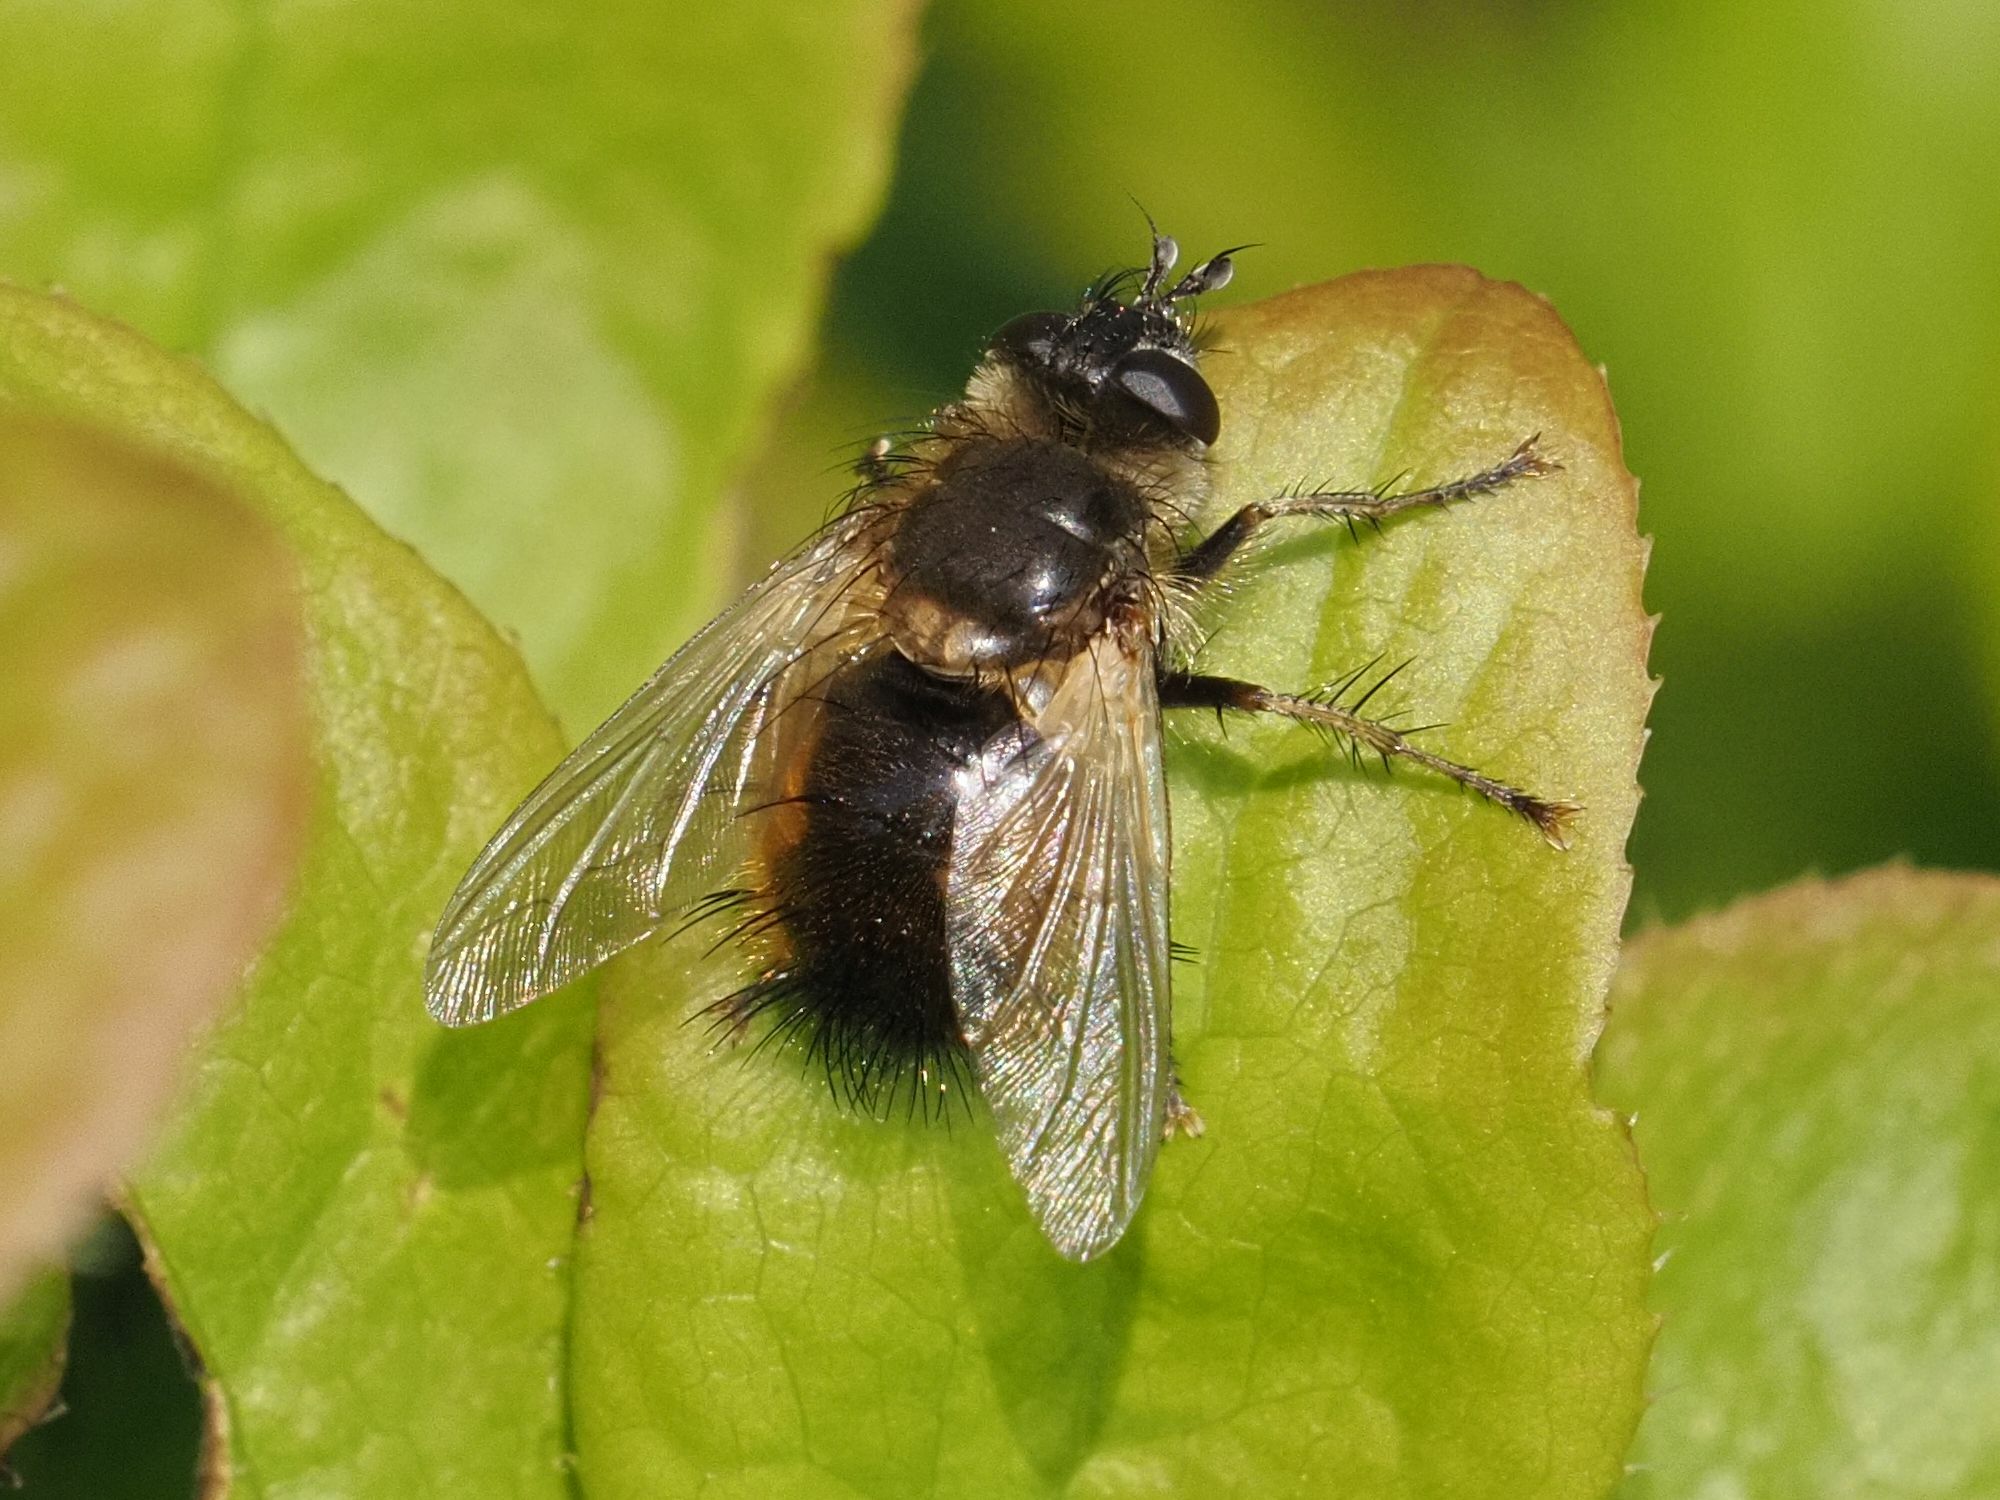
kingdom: Animalia
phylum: Arthropoda
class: Insecta
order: Diptera
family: Tachinidae
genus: Tachina
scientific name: Tachina lurida
